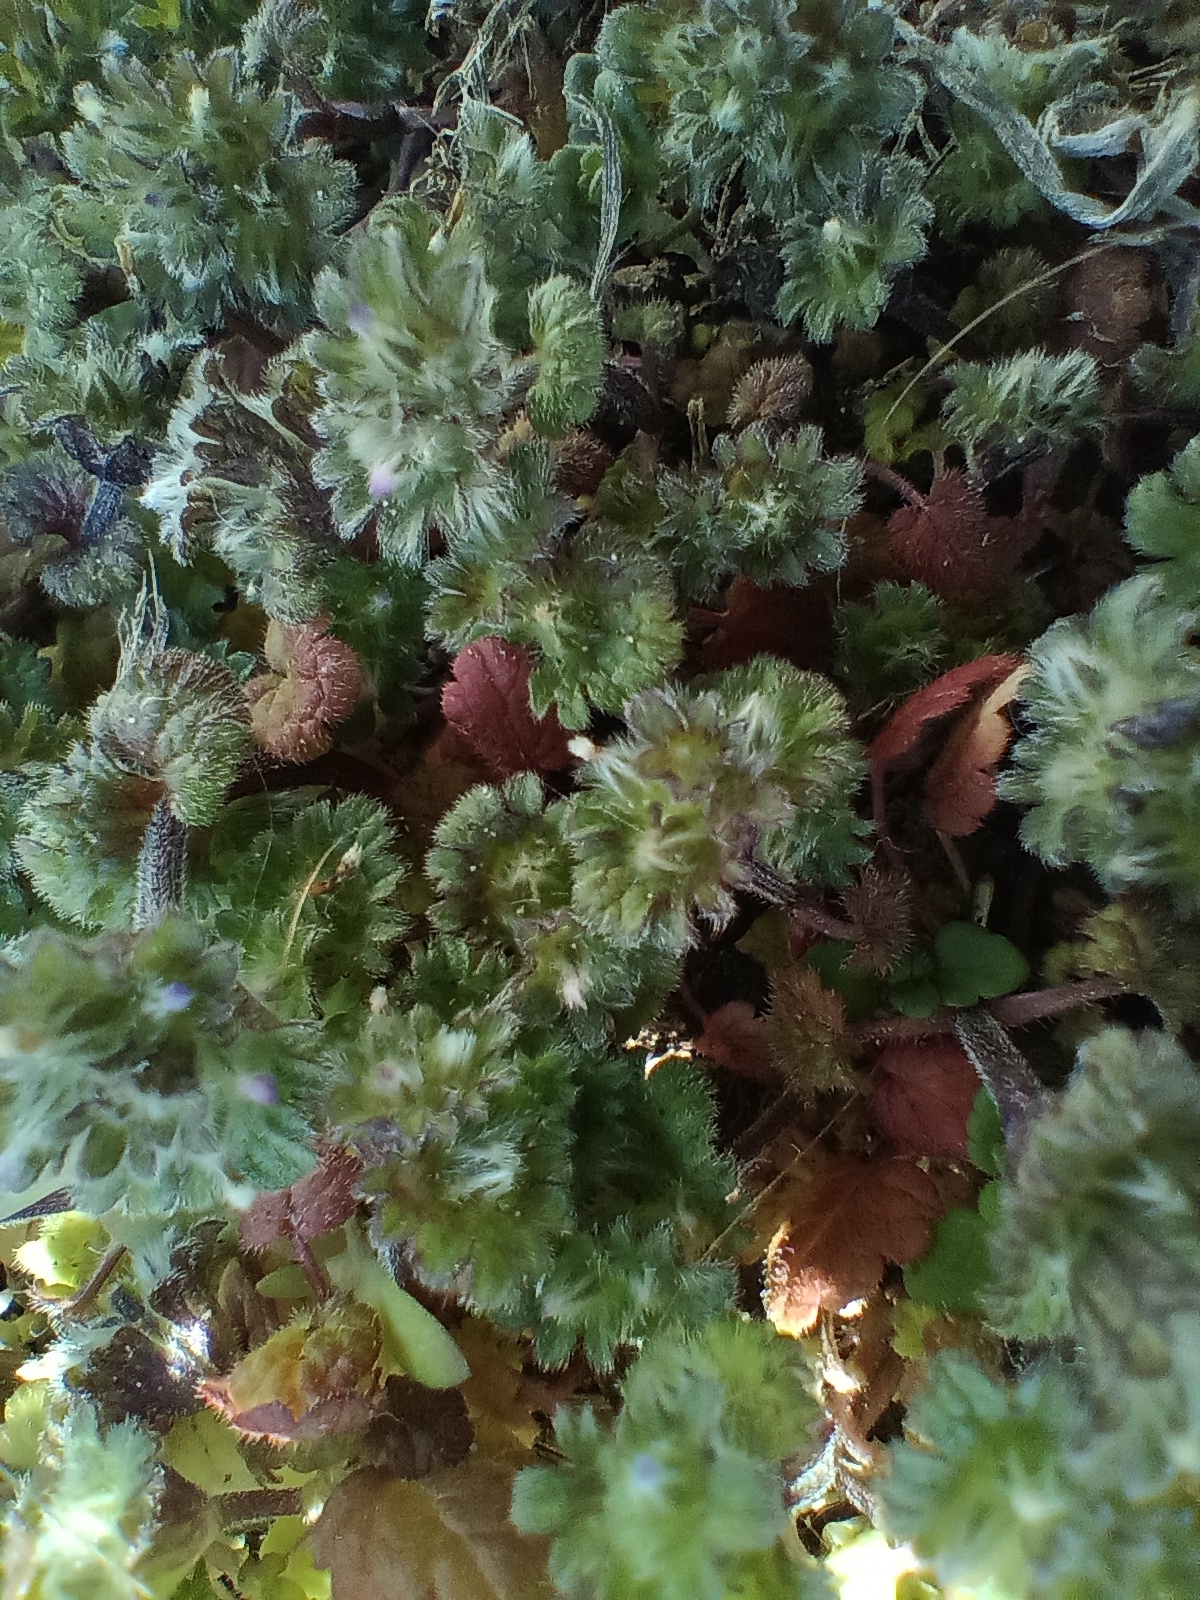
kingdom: Plantae
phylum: Tracheophyta
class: Magnoliopsida
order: Lamiales
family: Lamiaceae
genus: Lamium
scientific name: Lamium amplexicaule
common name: Henbit dead-nettle
